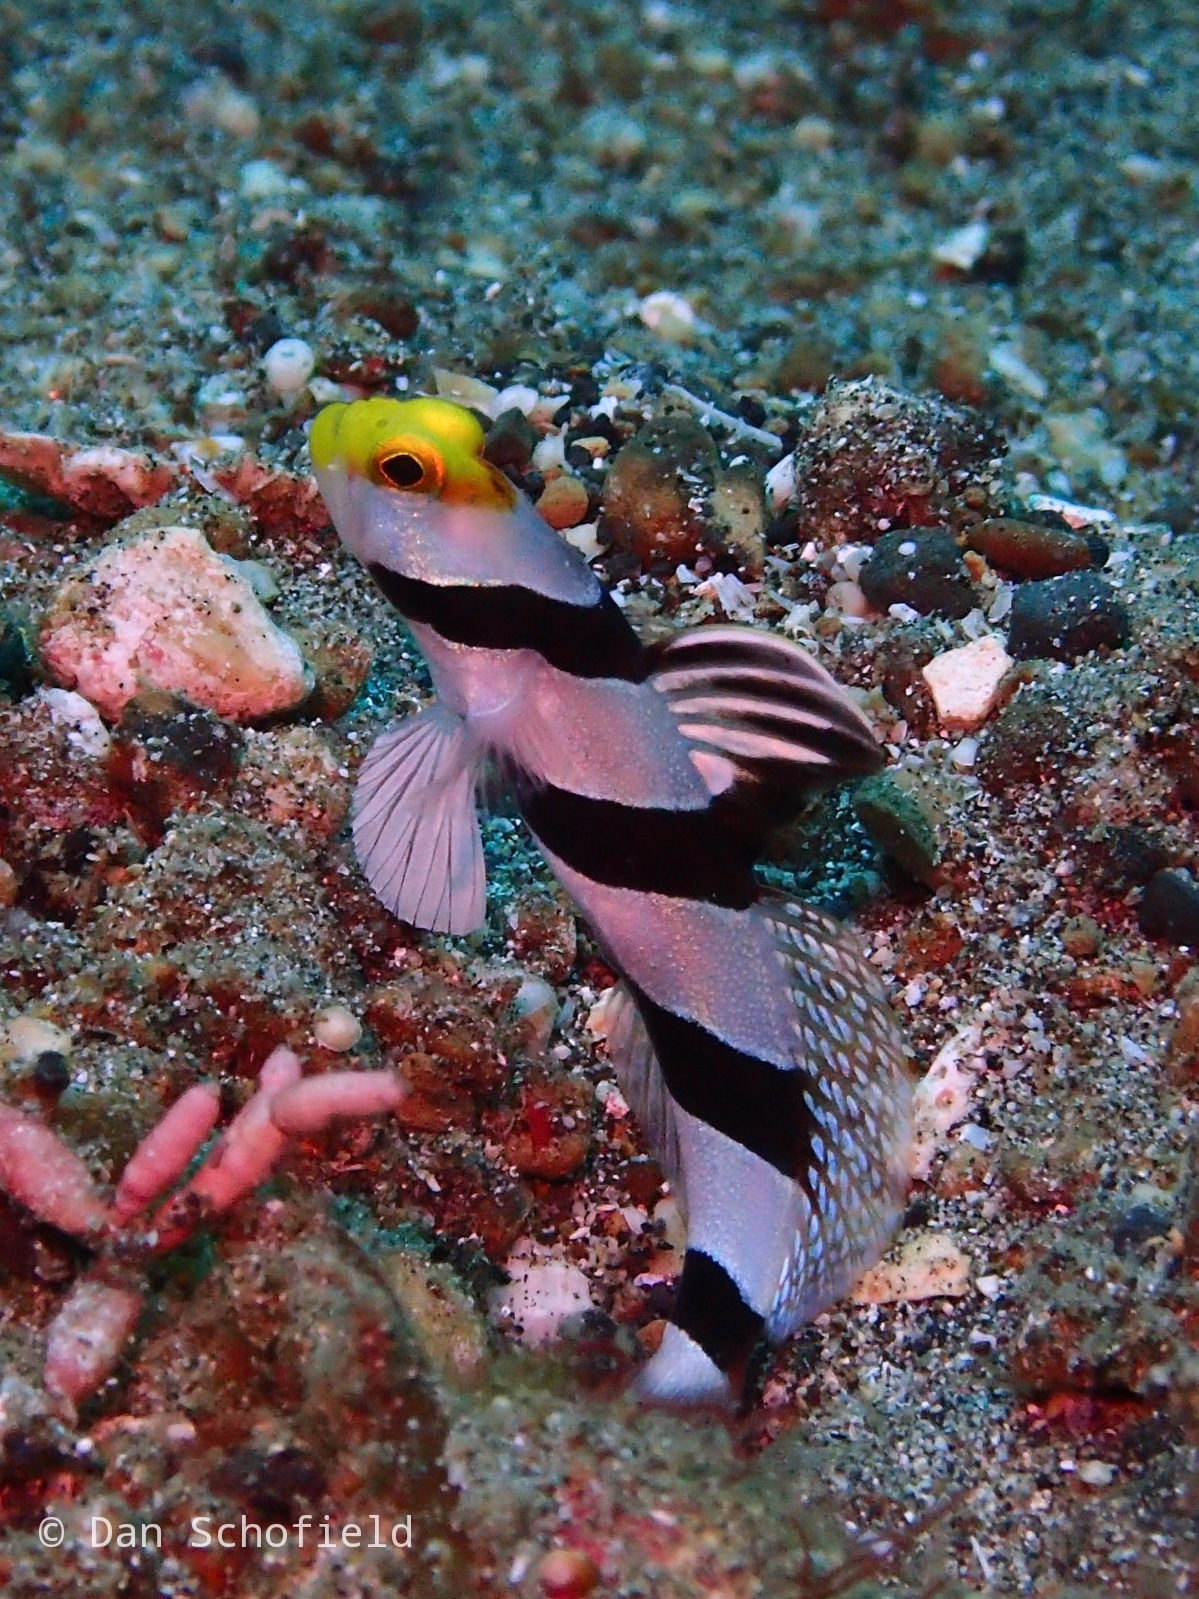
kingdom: Animalia
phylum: Chordata
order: Perciformes
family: Gobiidae
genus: Stonogobiops
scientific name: Stonogobiops xanthorhinica
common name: Yellow-snout shrimp-goby
